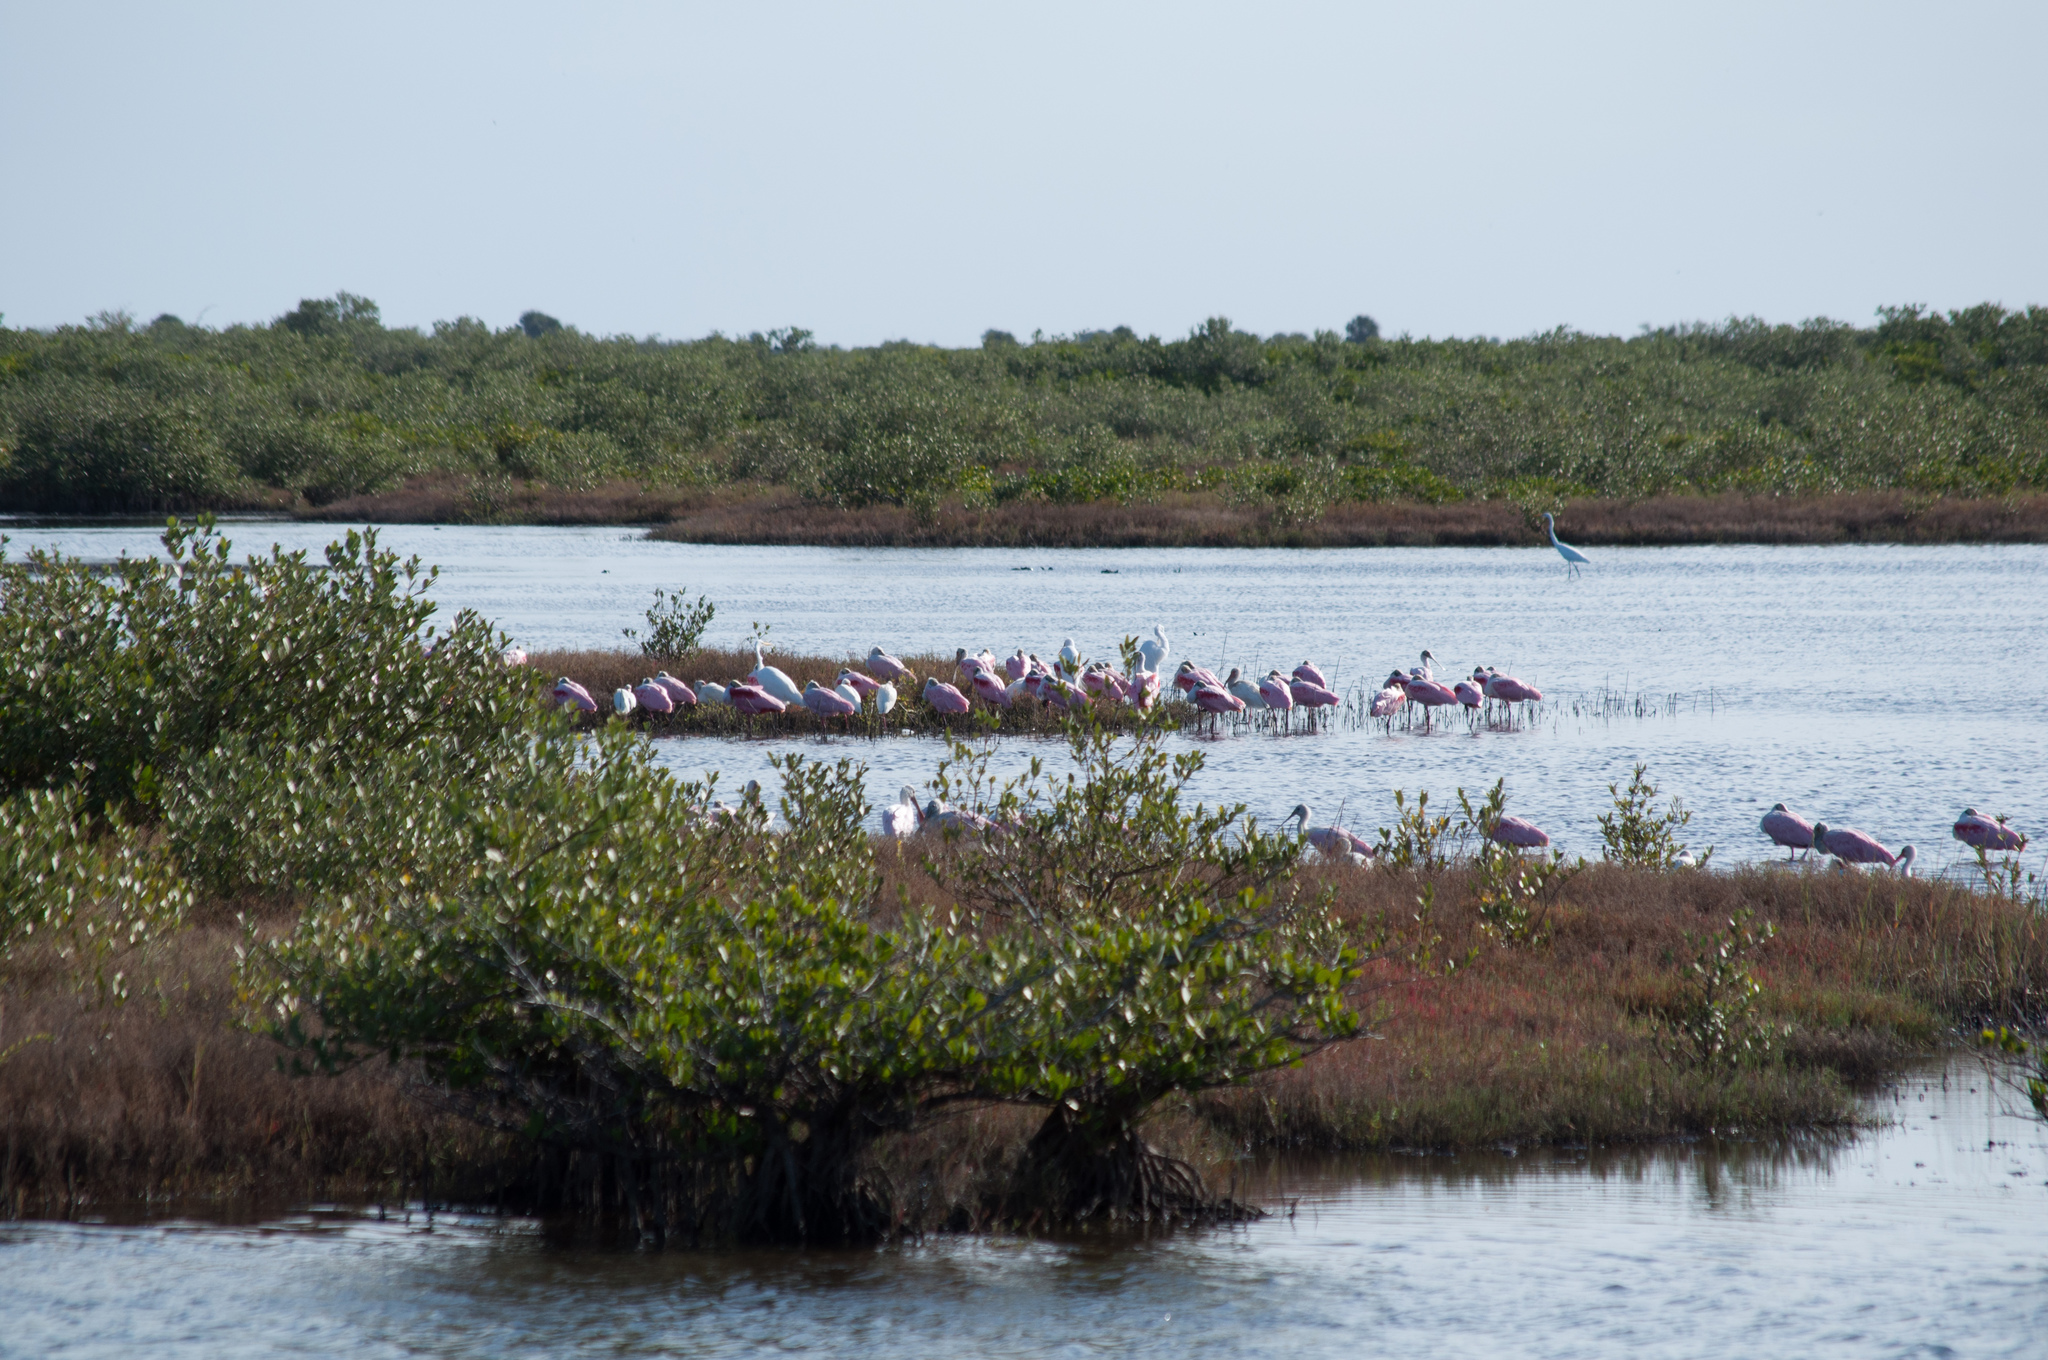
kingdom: Animalia
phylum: Chordata
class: Aves
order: Pelecaniformes
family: Threskiornithidae
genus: Platalea
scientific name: Platalea ajaja
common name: Roseate spoonbill
